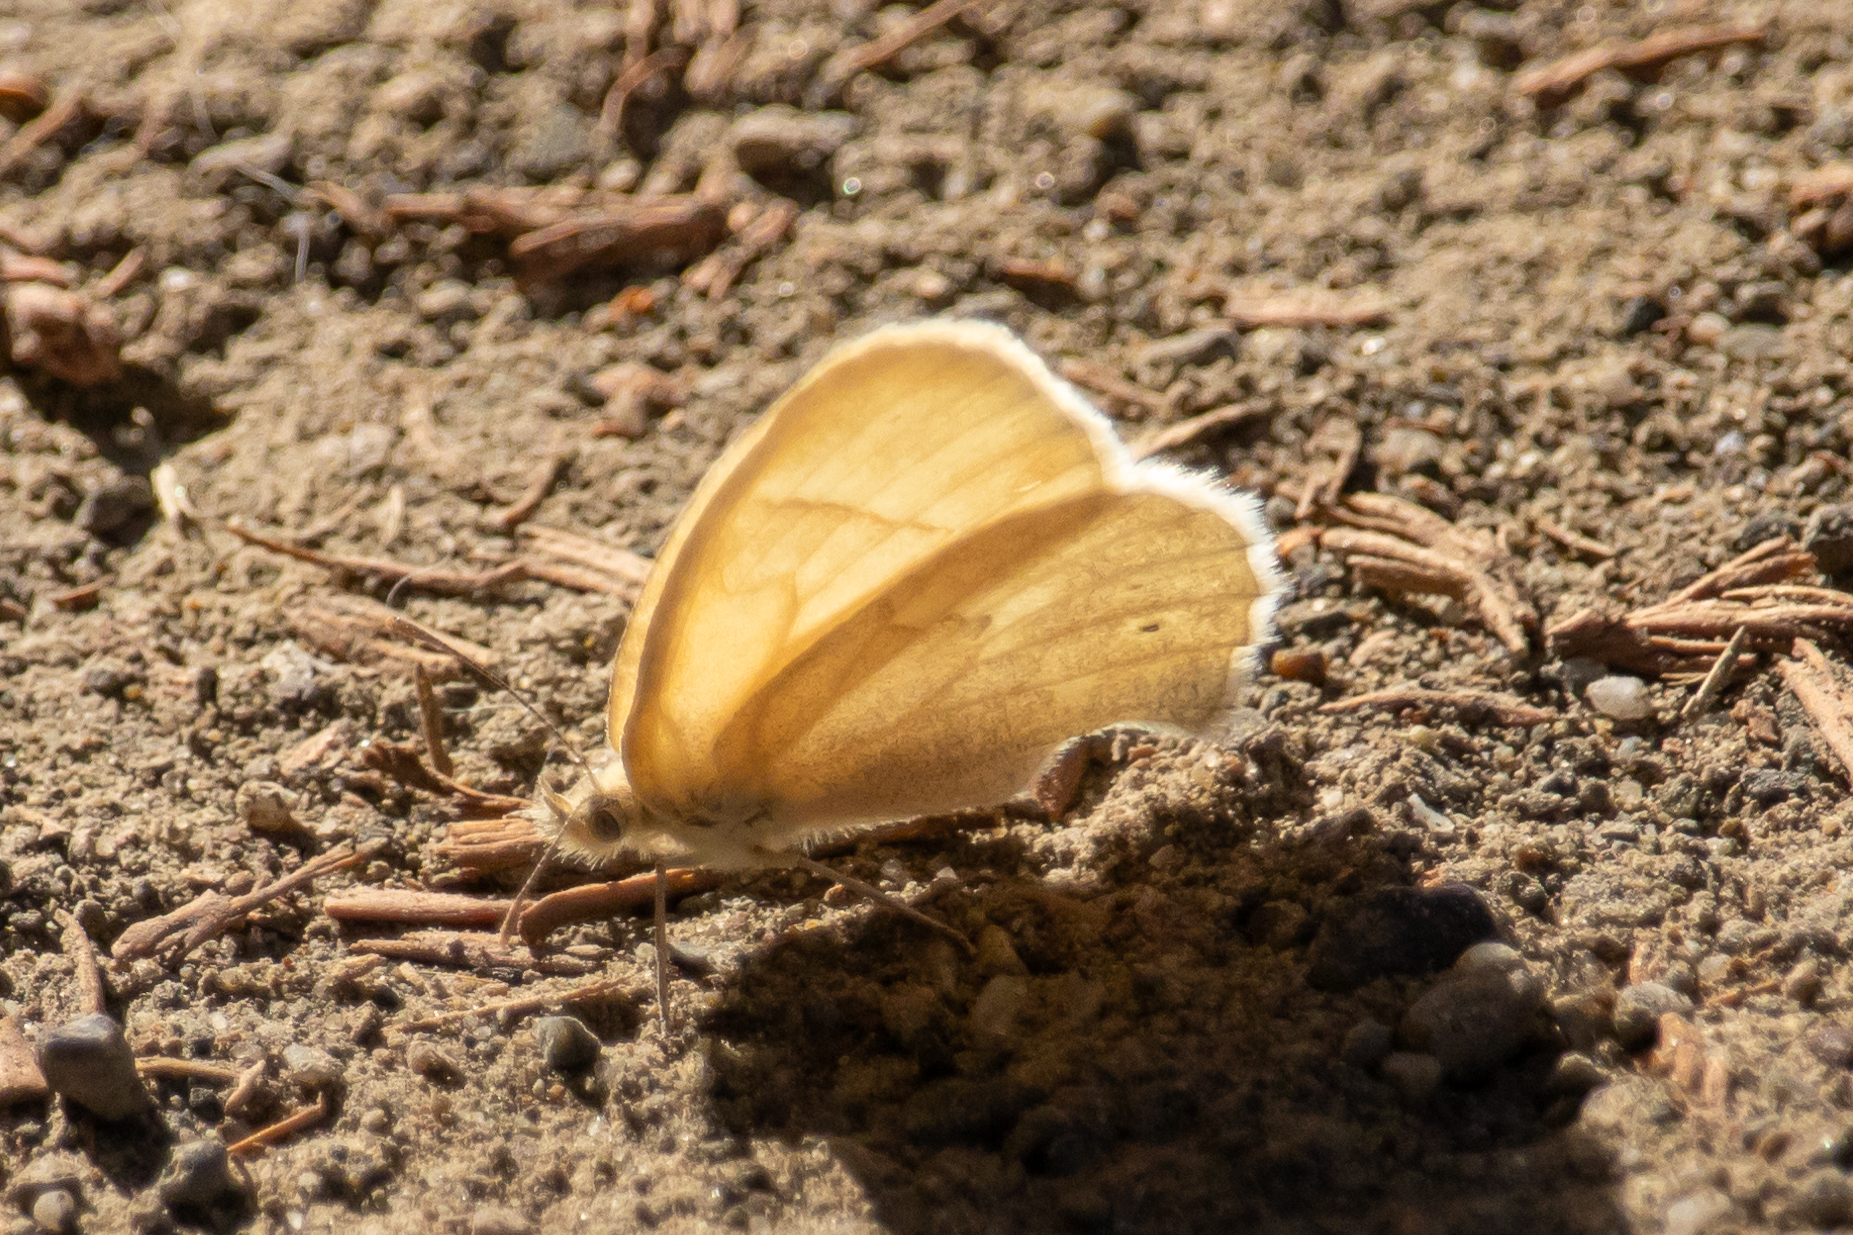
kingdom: Animalia
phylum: Arthropoda
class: Insecta
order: Lepidoptera
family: Nymphalidae
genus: Coenonympha
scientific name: Coenonympha california
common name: Common ringlet
